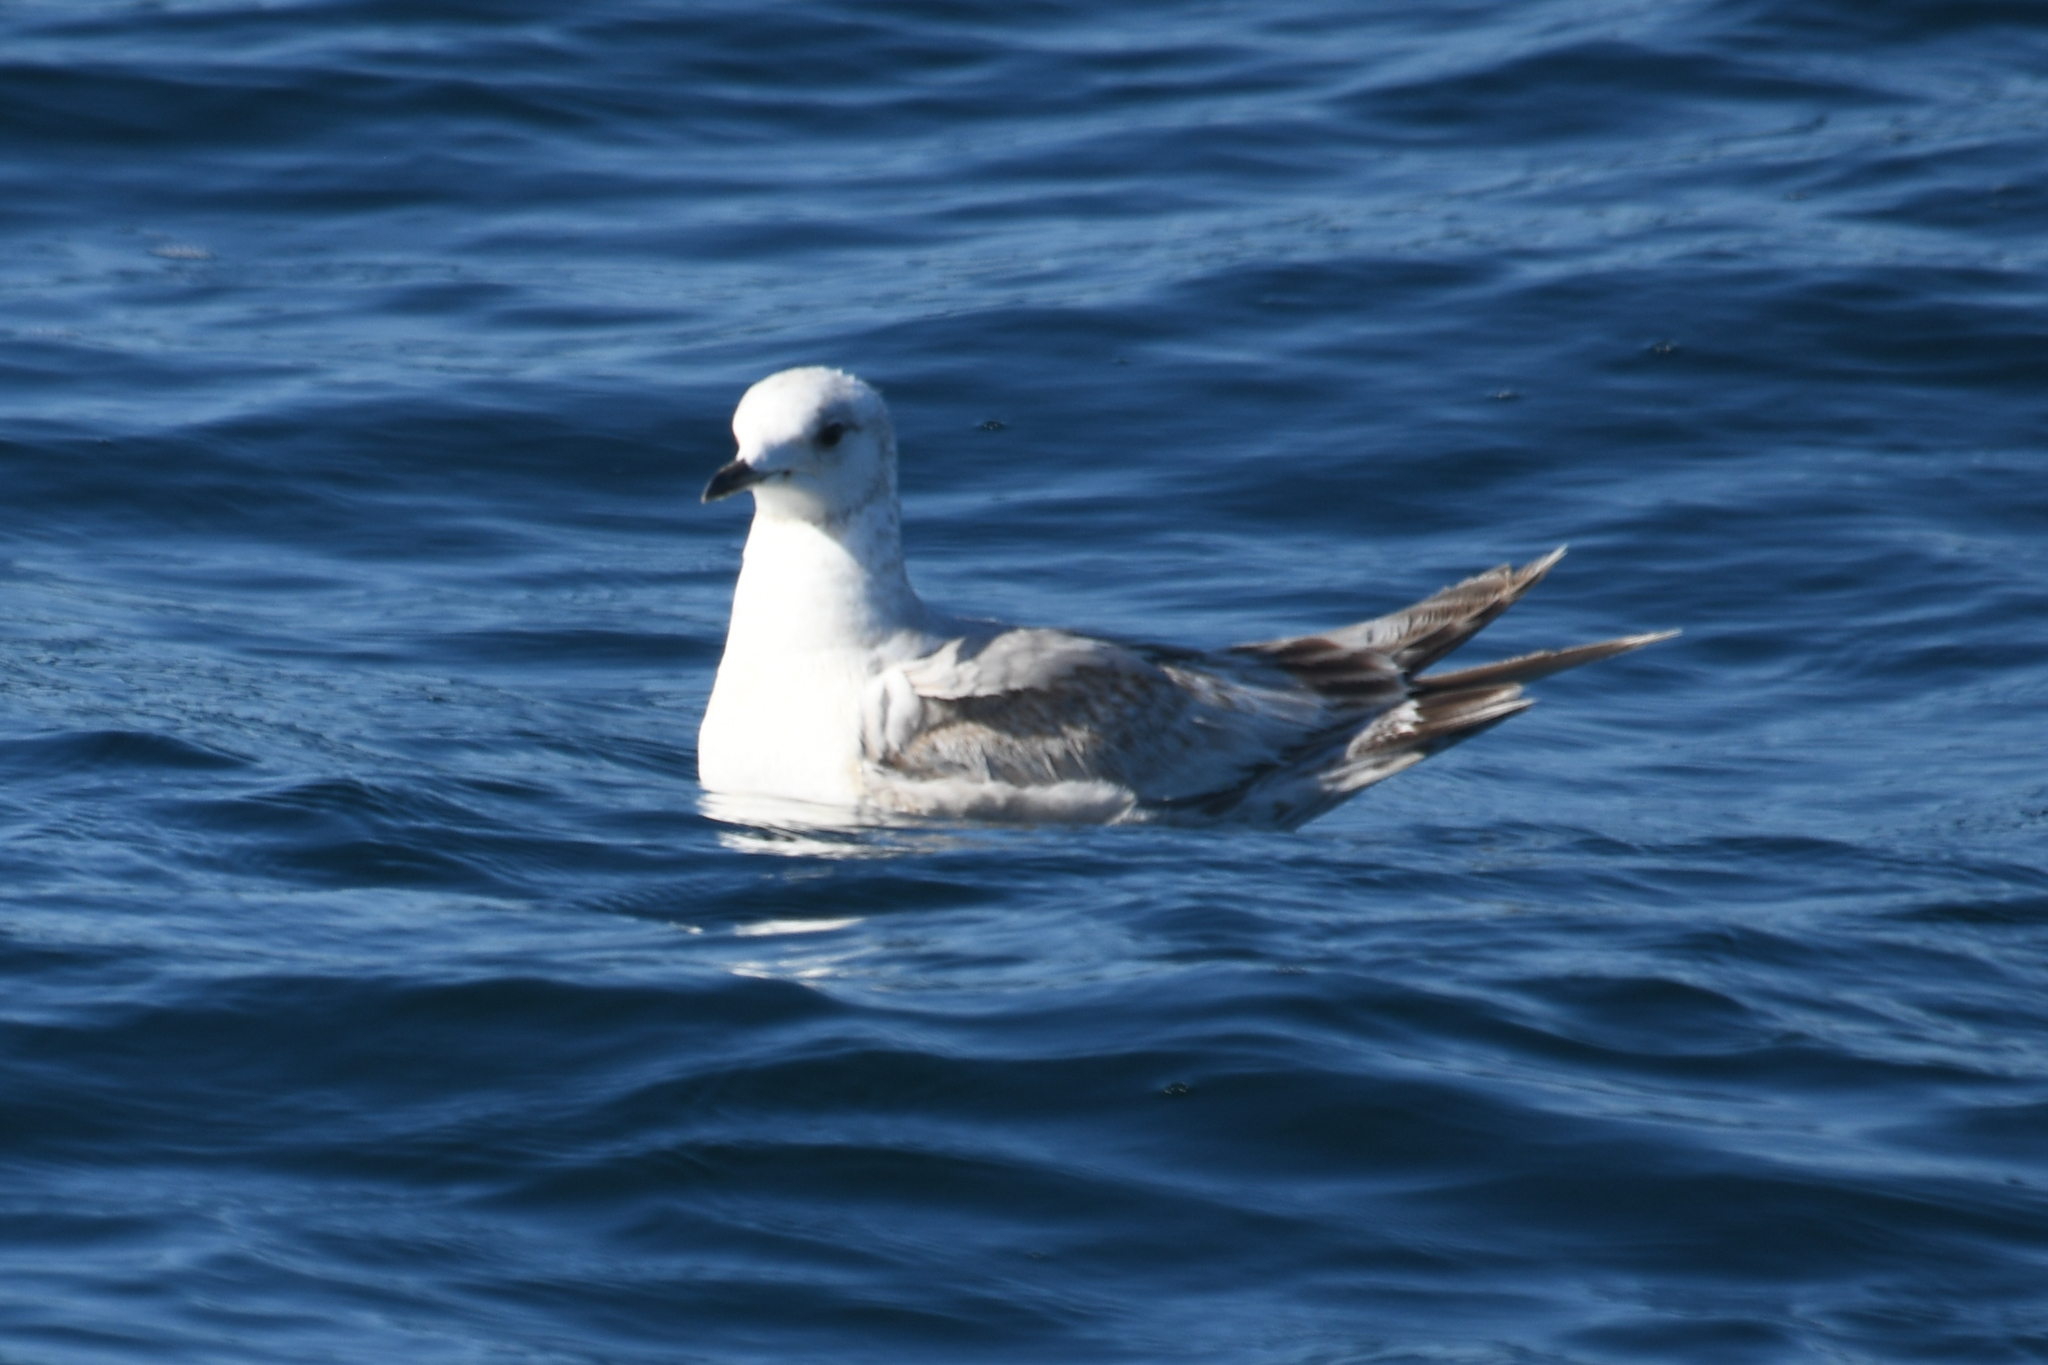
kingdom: Animalia
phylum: Chordata
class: Aves
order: Charadriiformes
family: Laridae
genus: Larus
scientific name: Larus brachyrhynchus
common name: Short-billed gull
